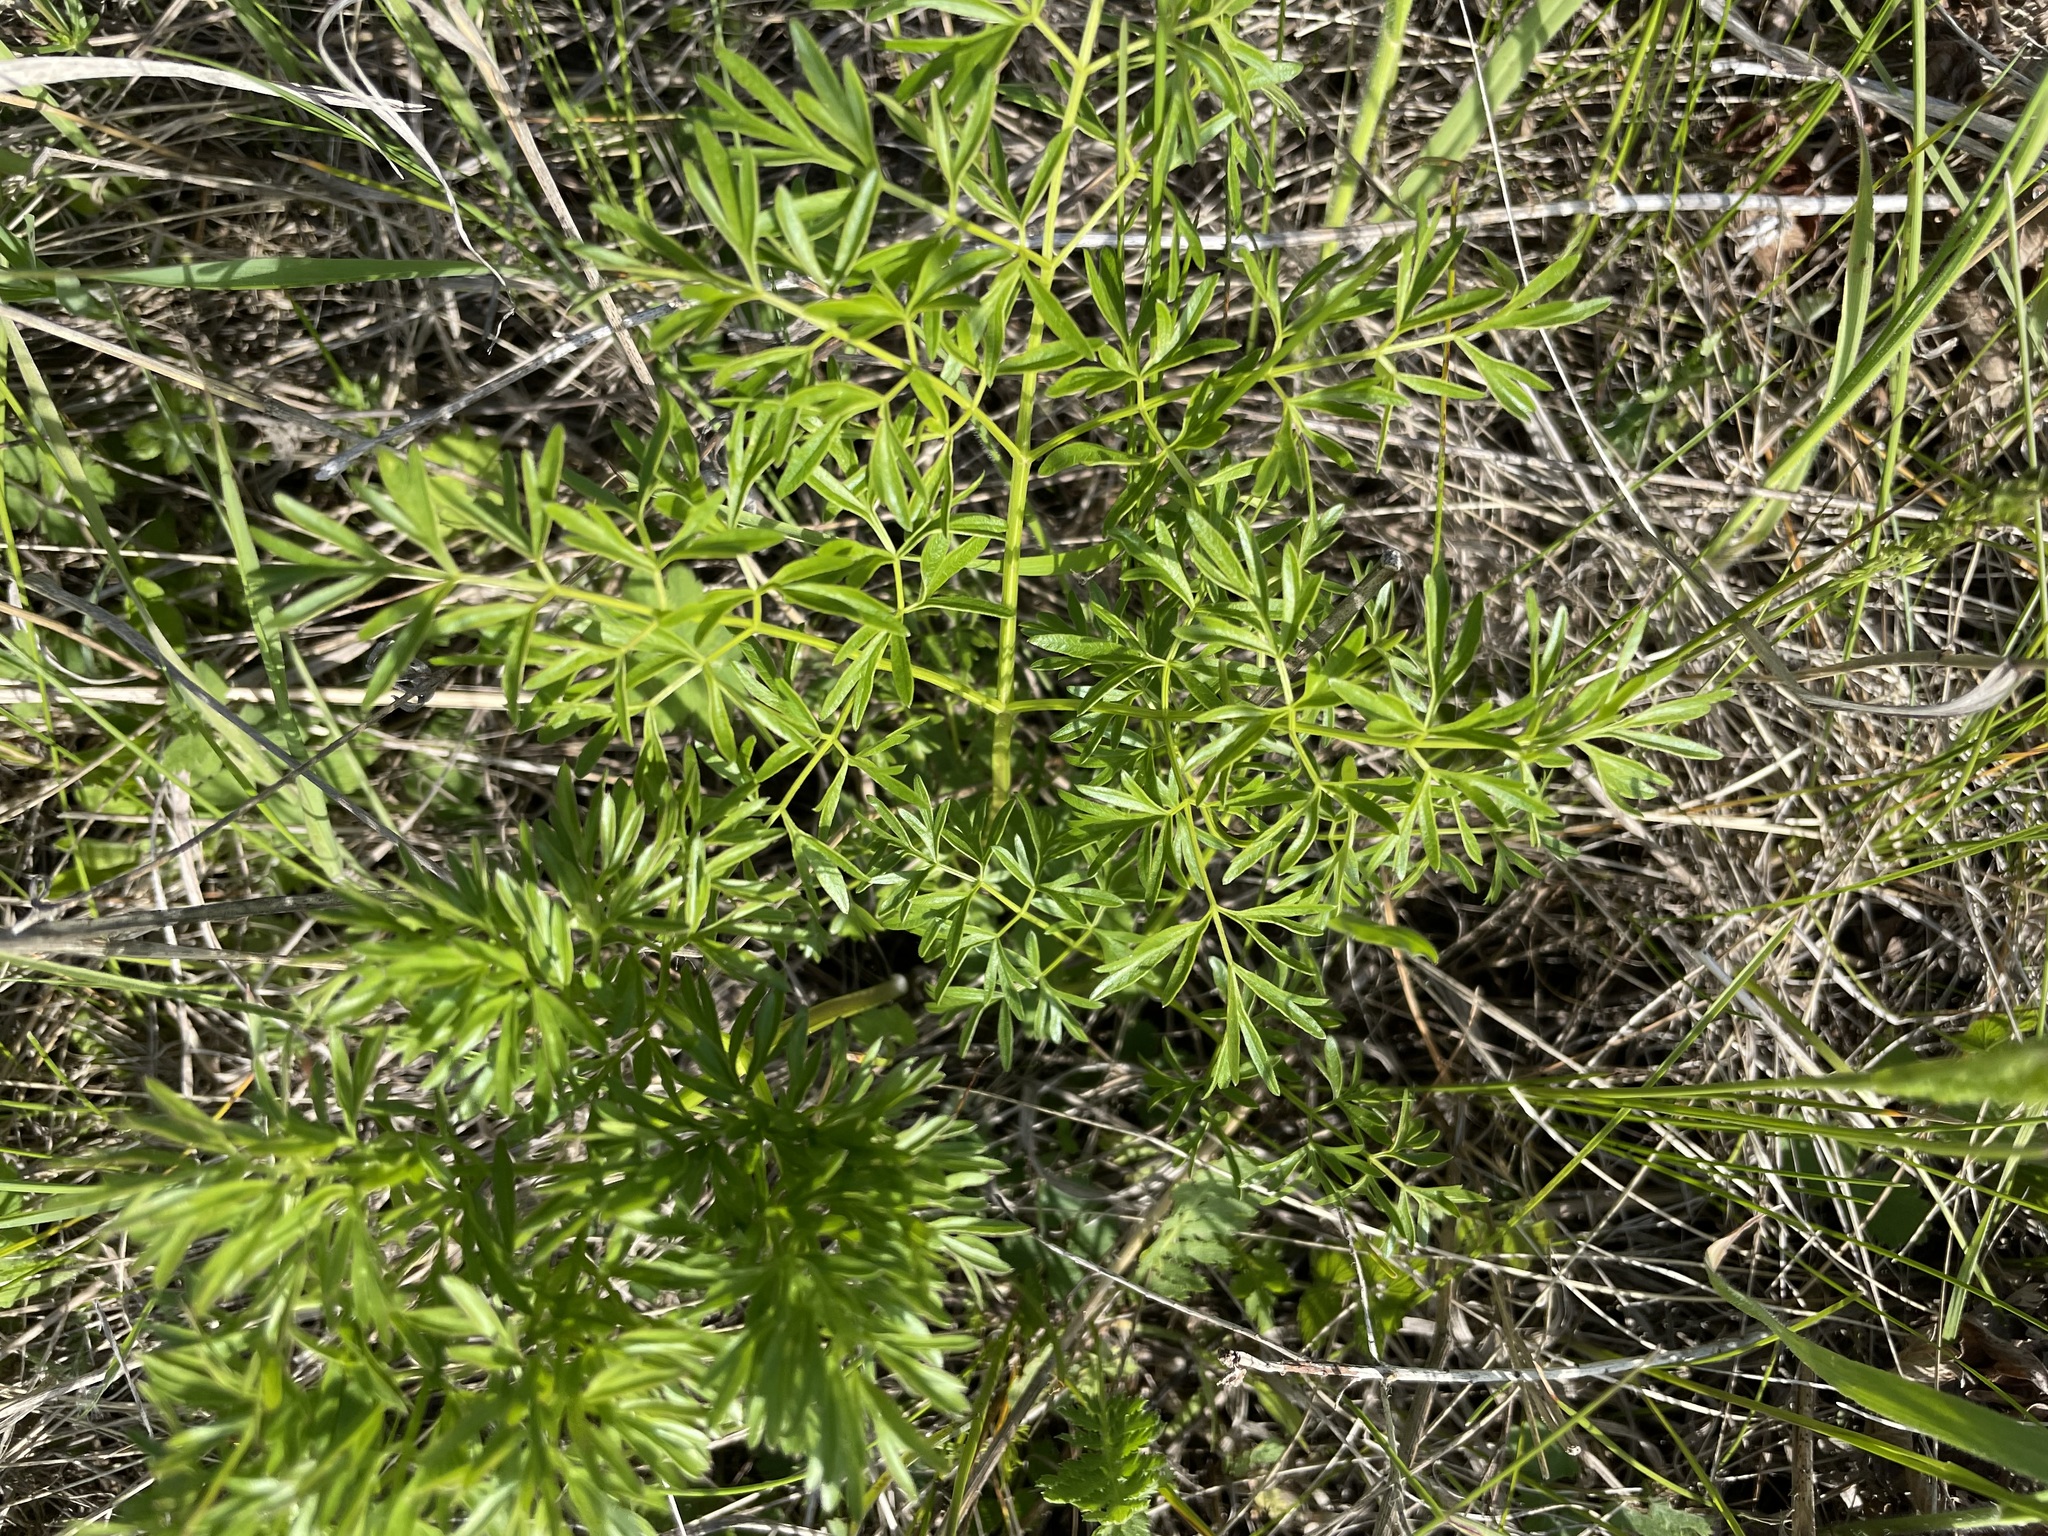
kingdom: Plantae
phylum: Tracheophyta
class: Magnoliopsida
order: Apiales
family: Apiaceae
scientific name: Apiaceae
